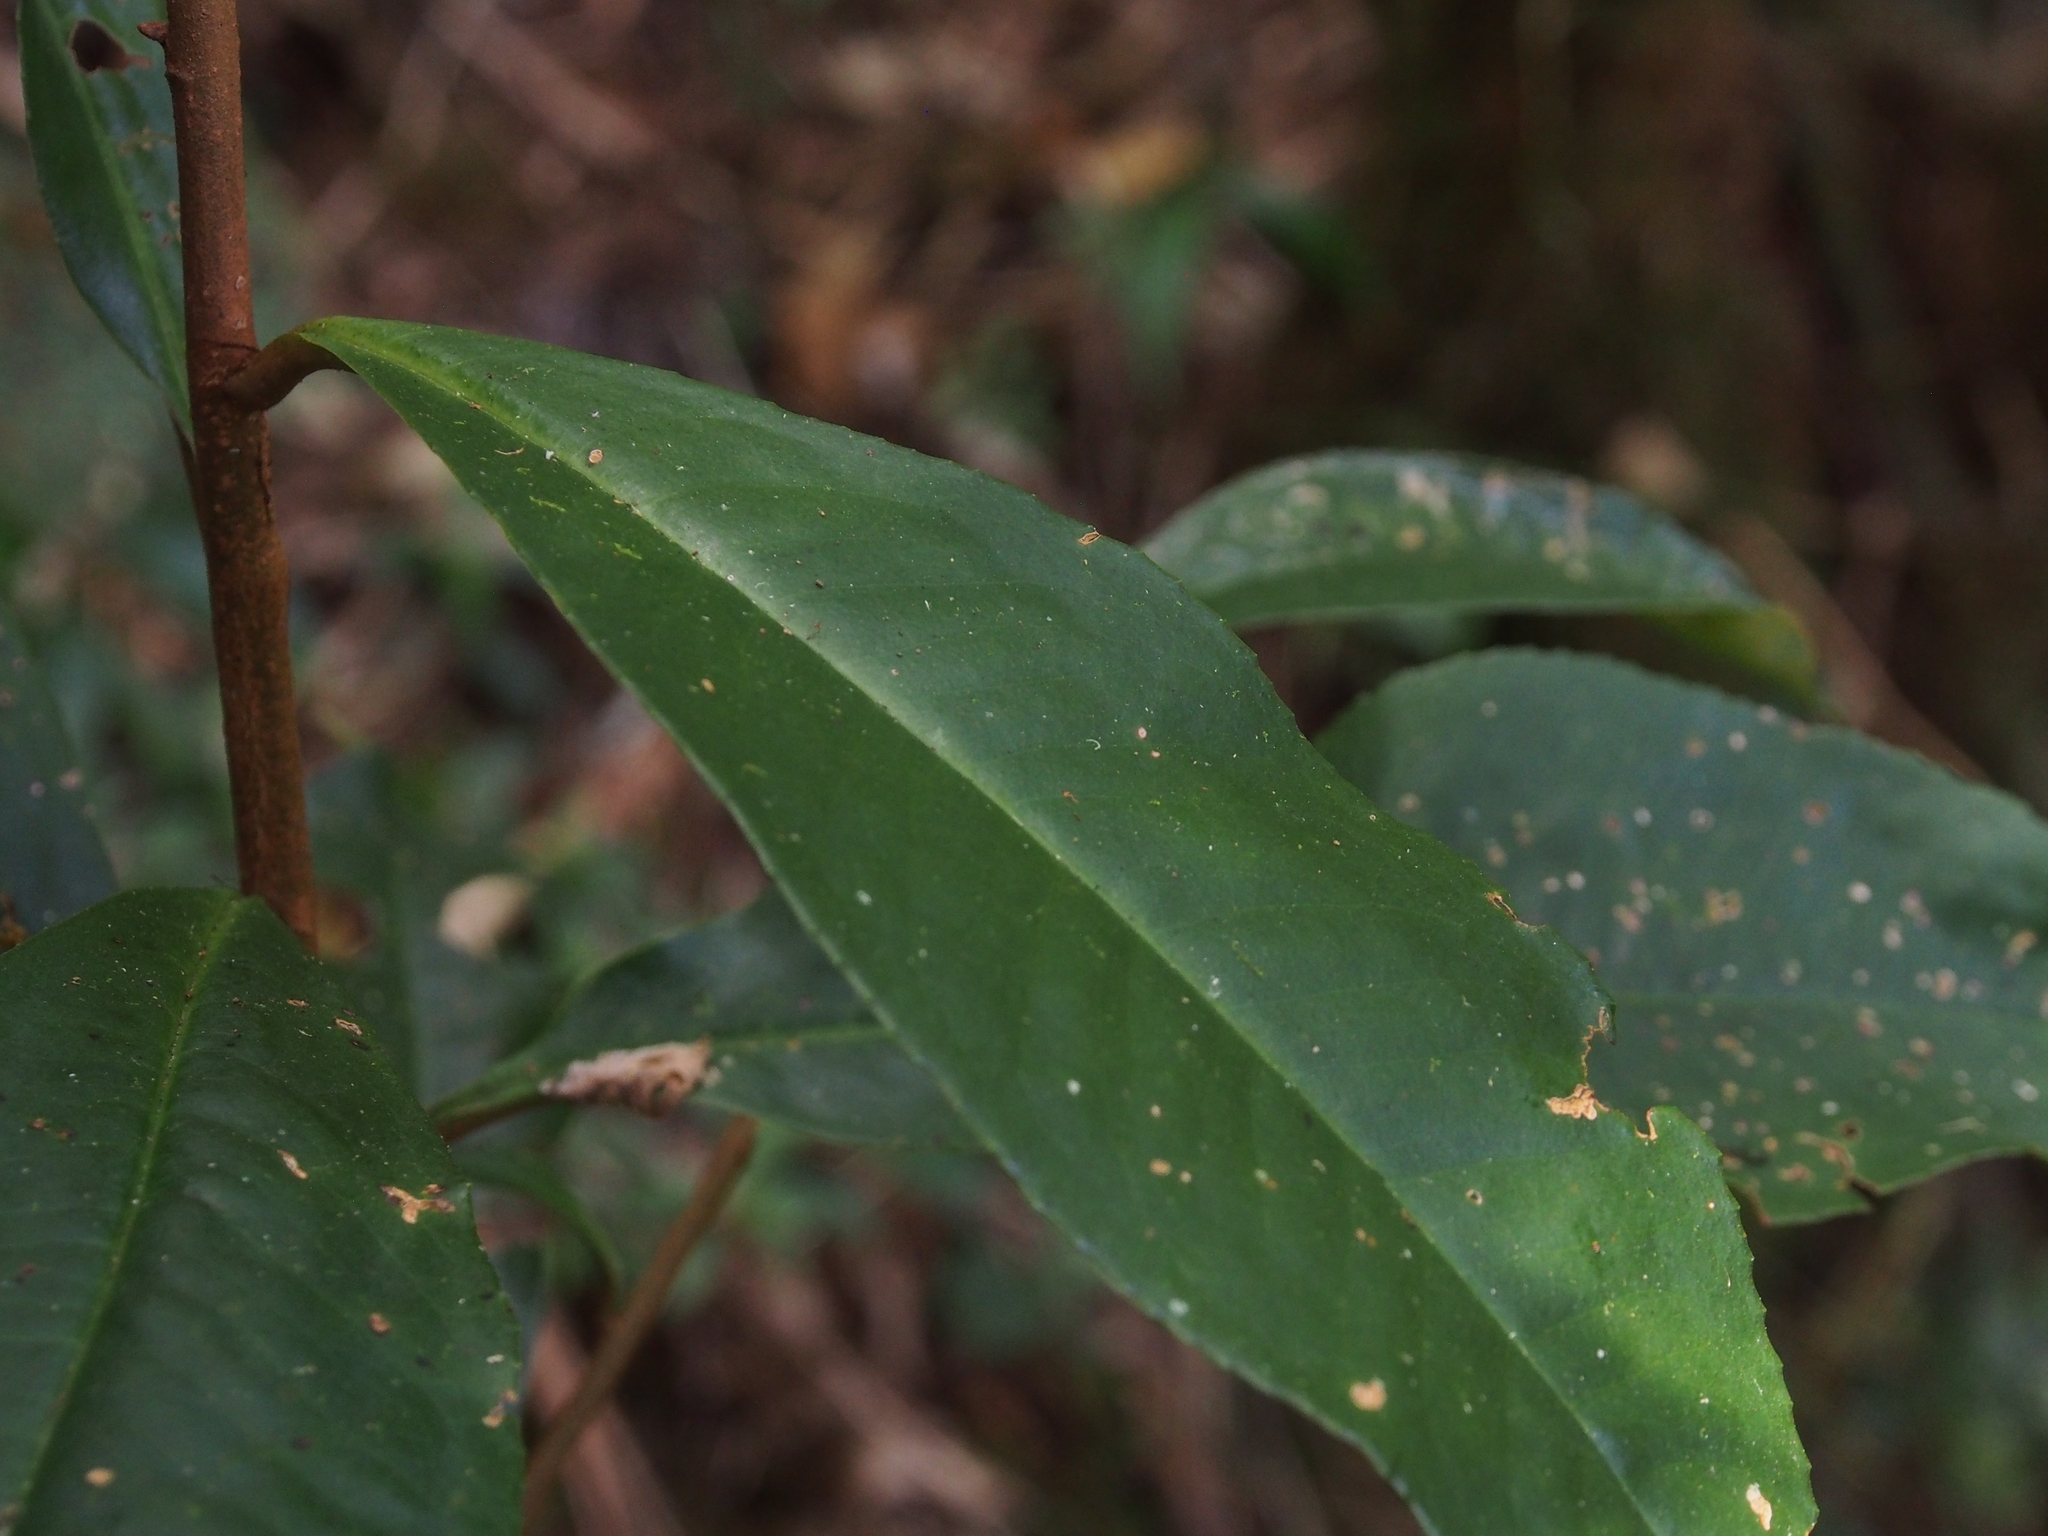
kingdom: Plantae
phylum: Tracheophyta
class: Magnoliopsida
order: Ericales
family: Primulaceae
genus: Ardisia
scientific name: Ardisia compressa
